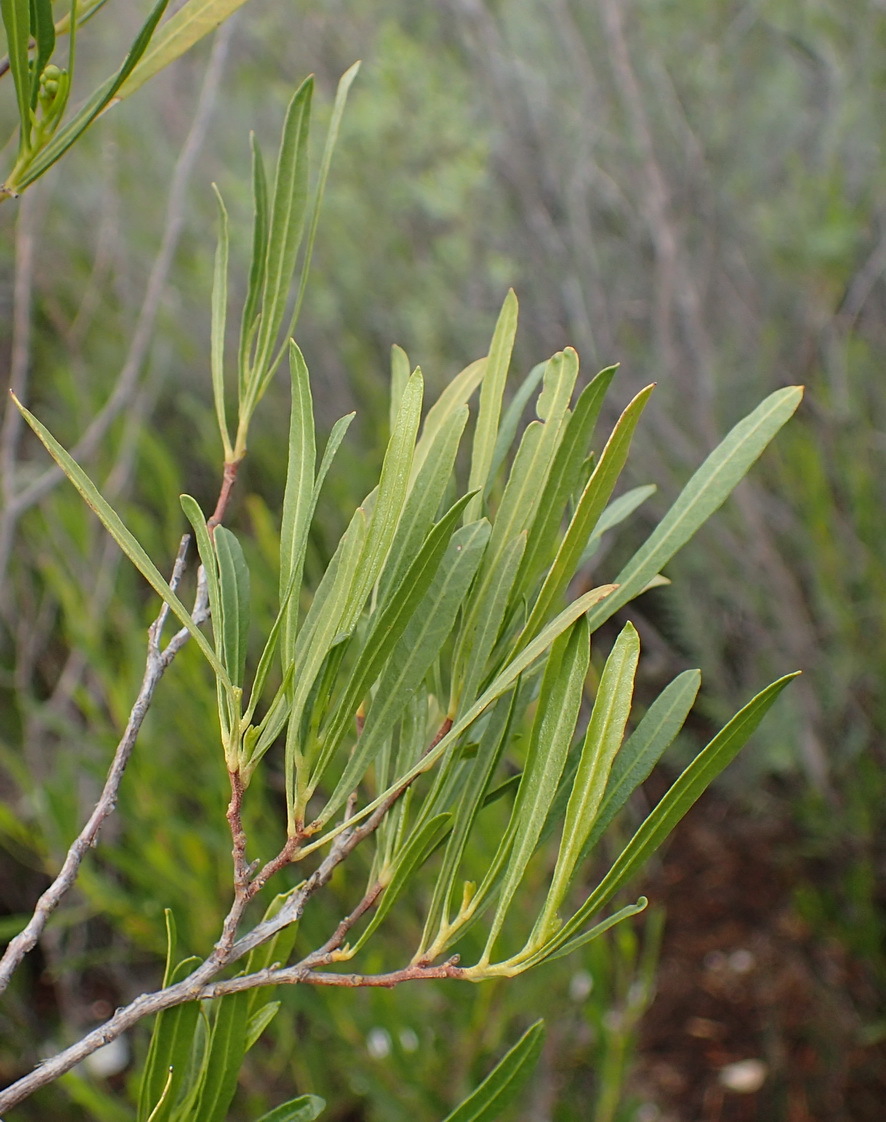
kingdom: Plantae
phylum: Tracheophyta
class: Magnoliopsida
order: Sapindales
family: Sapindaceae
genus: Dodonaea
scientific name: Dodonaea viscosa
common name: Hopbush
